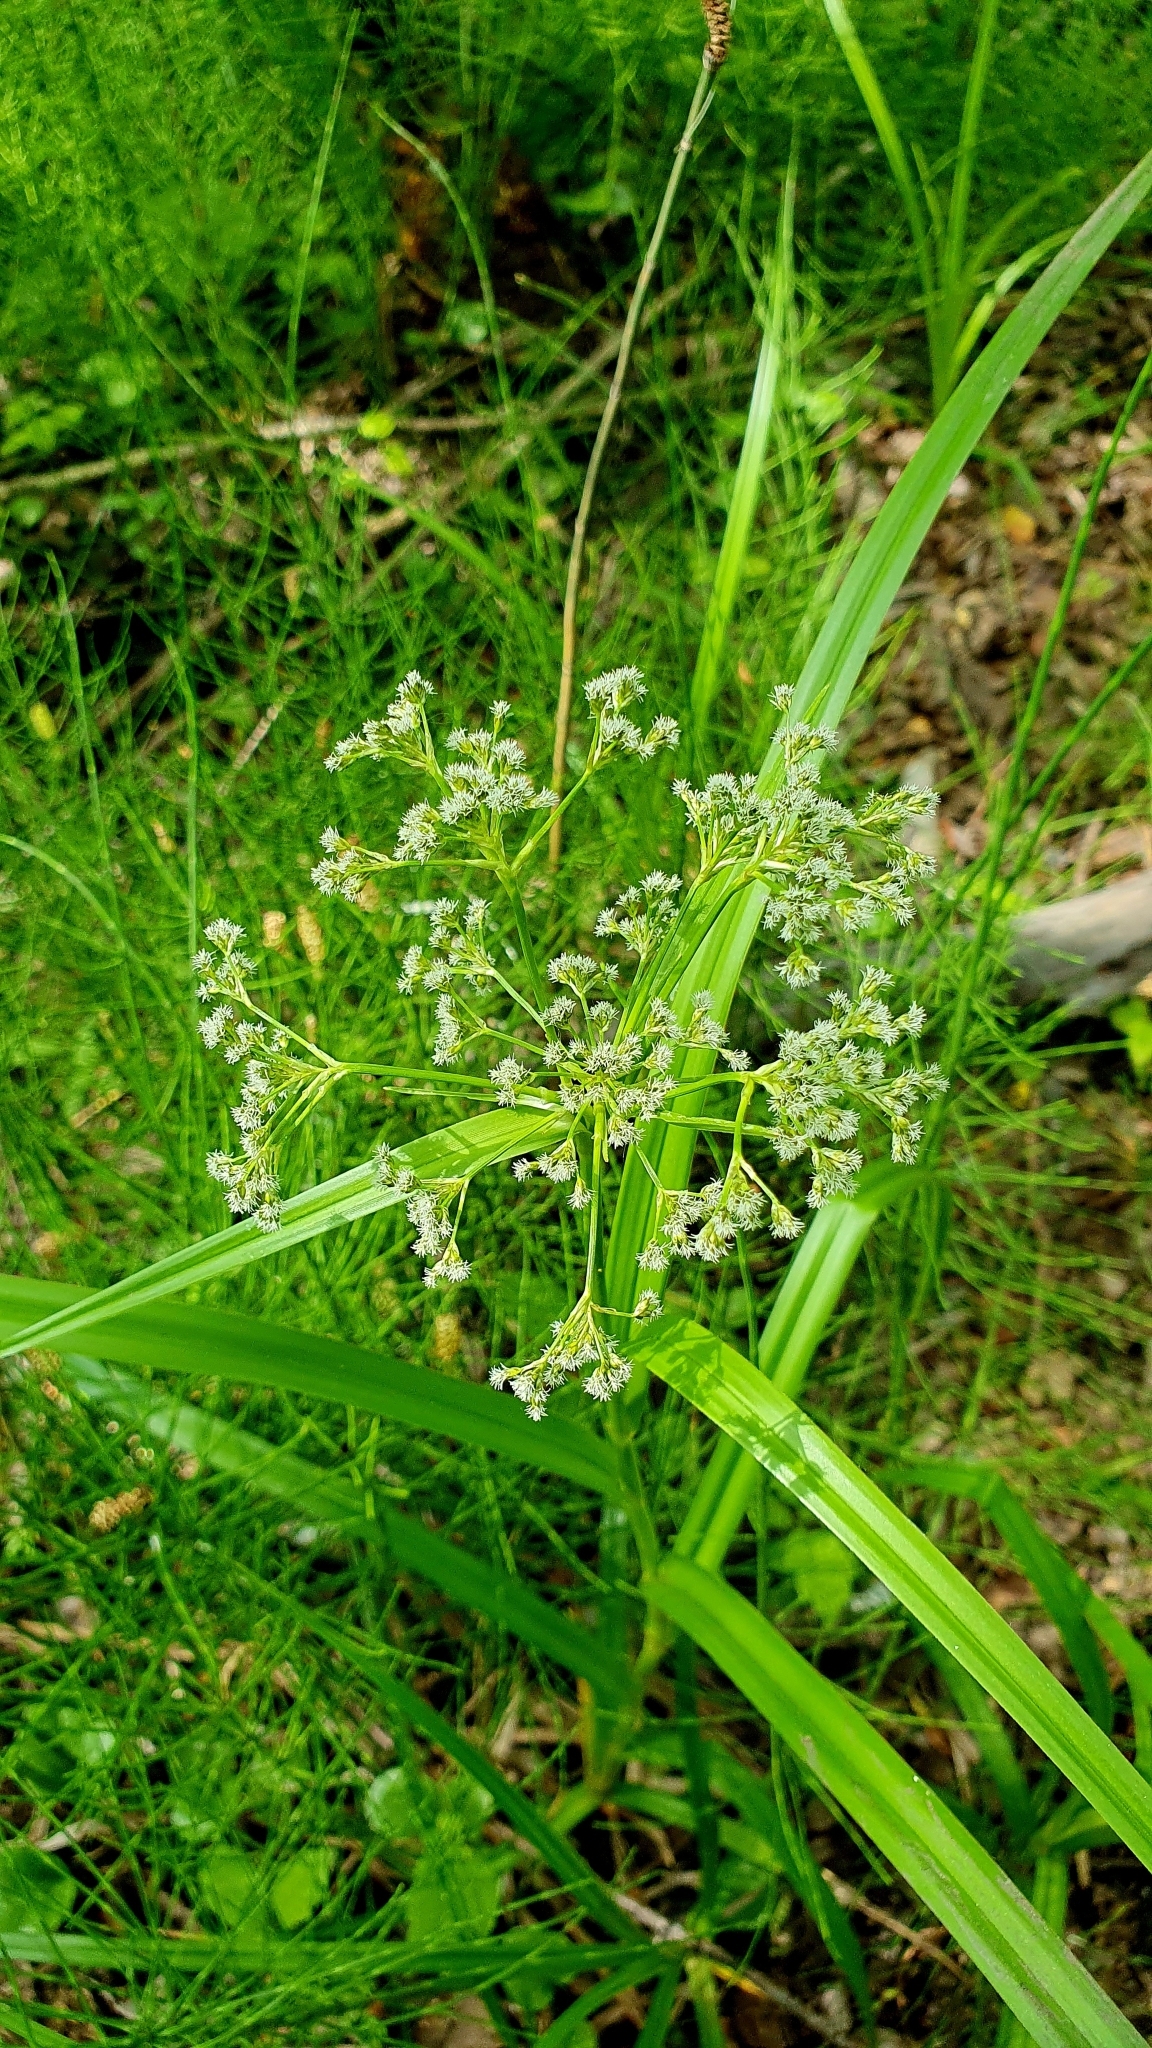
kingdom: Plantae
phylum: Tracheophyta
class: Liliopsida
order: Poales
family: Cyperaceae
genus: Scirpus
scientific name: Scirpus sylvaticus
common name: Wood club-rush
